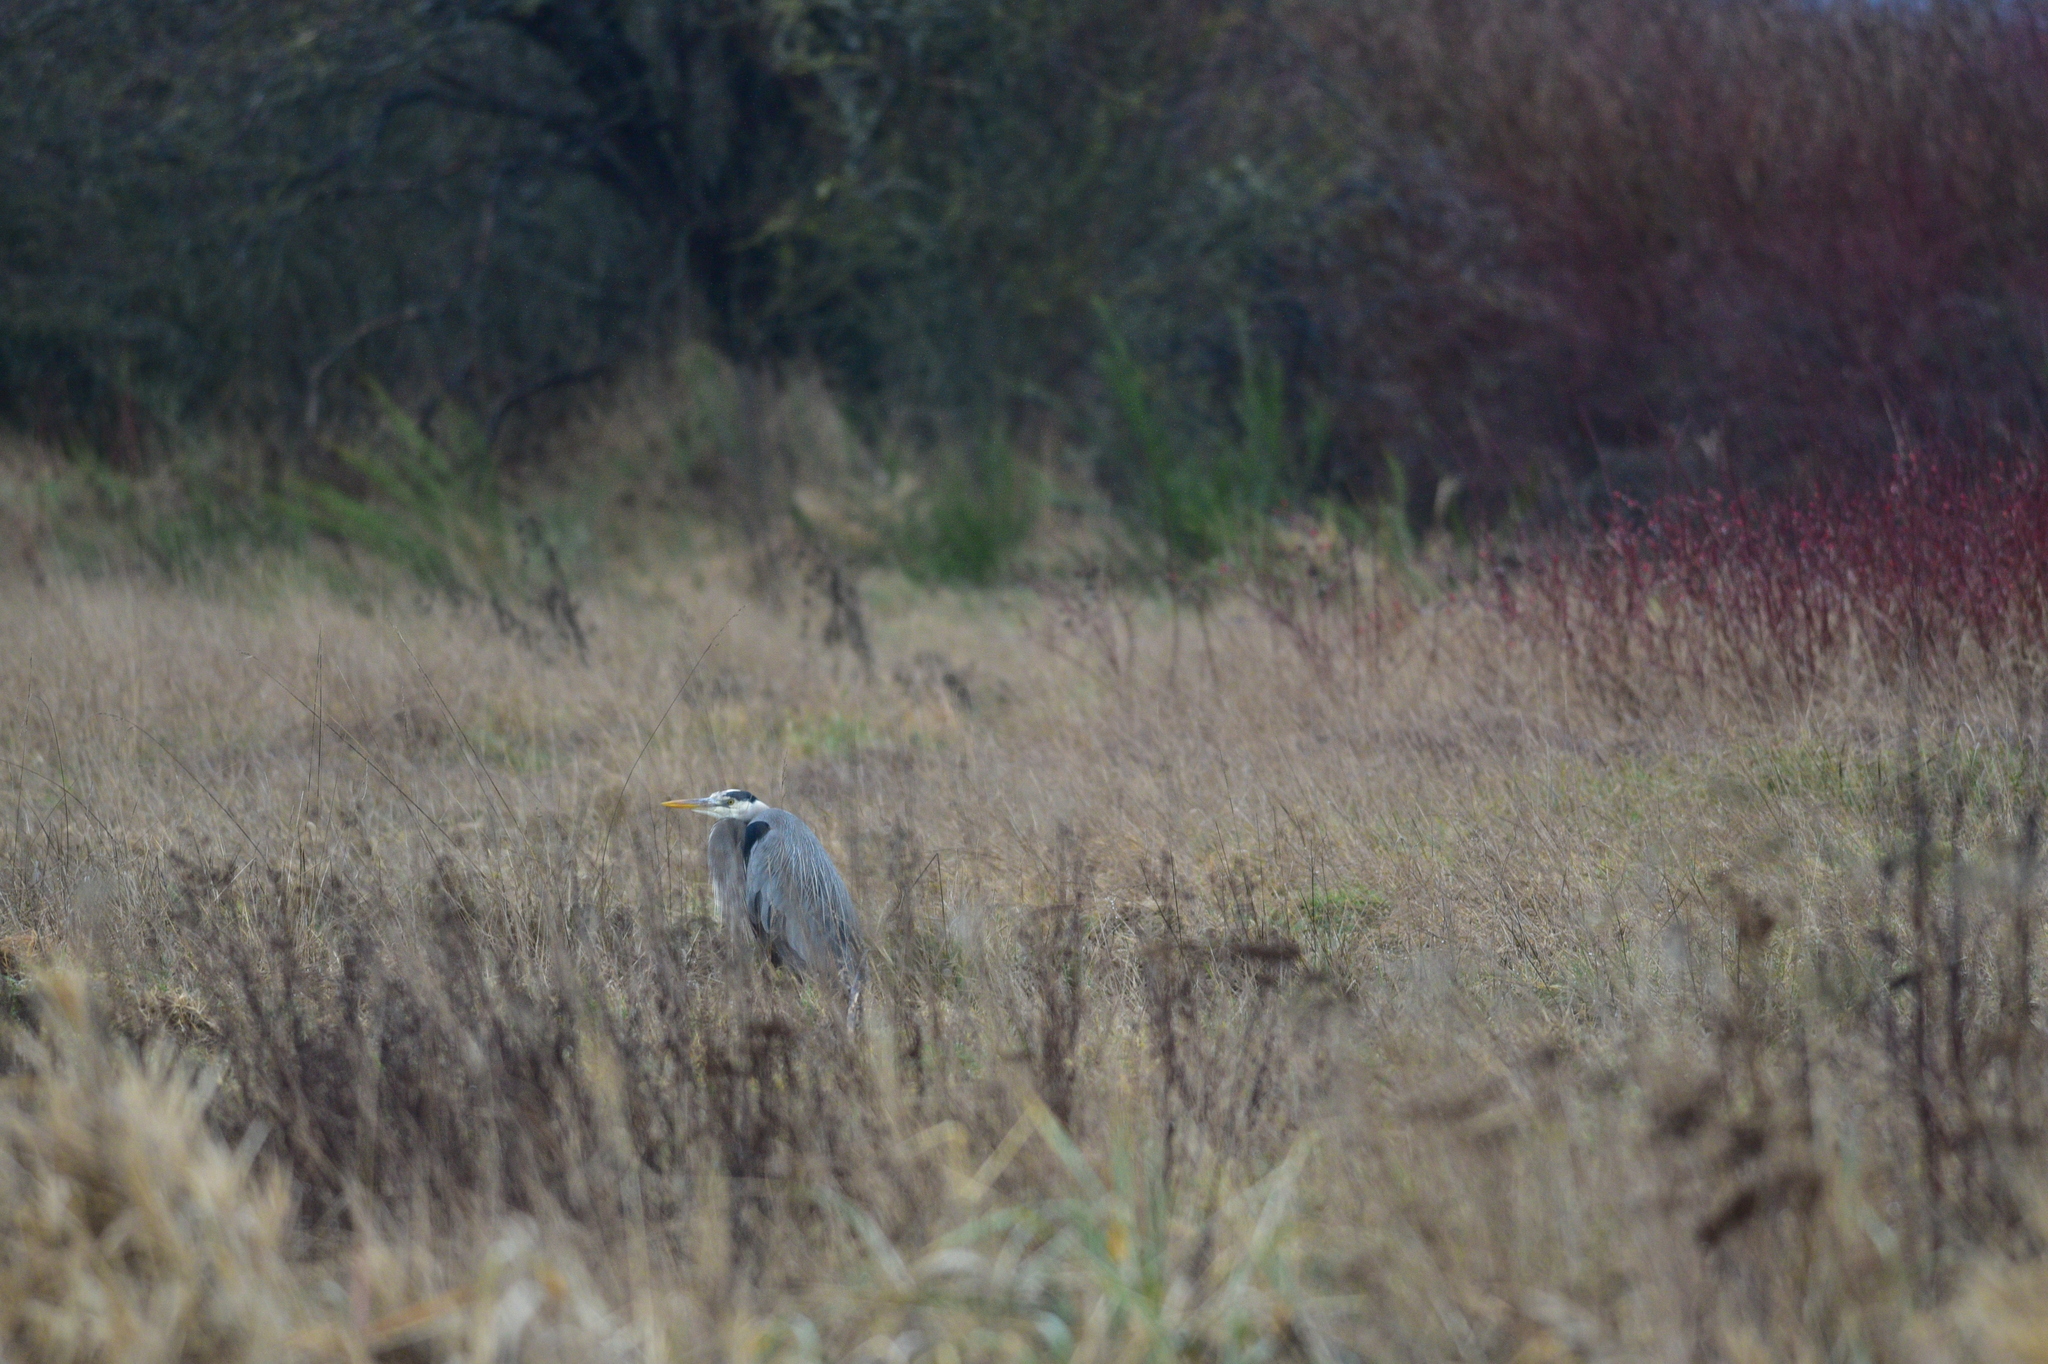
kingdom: Animalia
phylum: Chordata
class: Aves
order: Pelecaniformes
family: Ardeidae
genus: Ardea
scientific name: Ardea herodias
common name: Great blue heron
